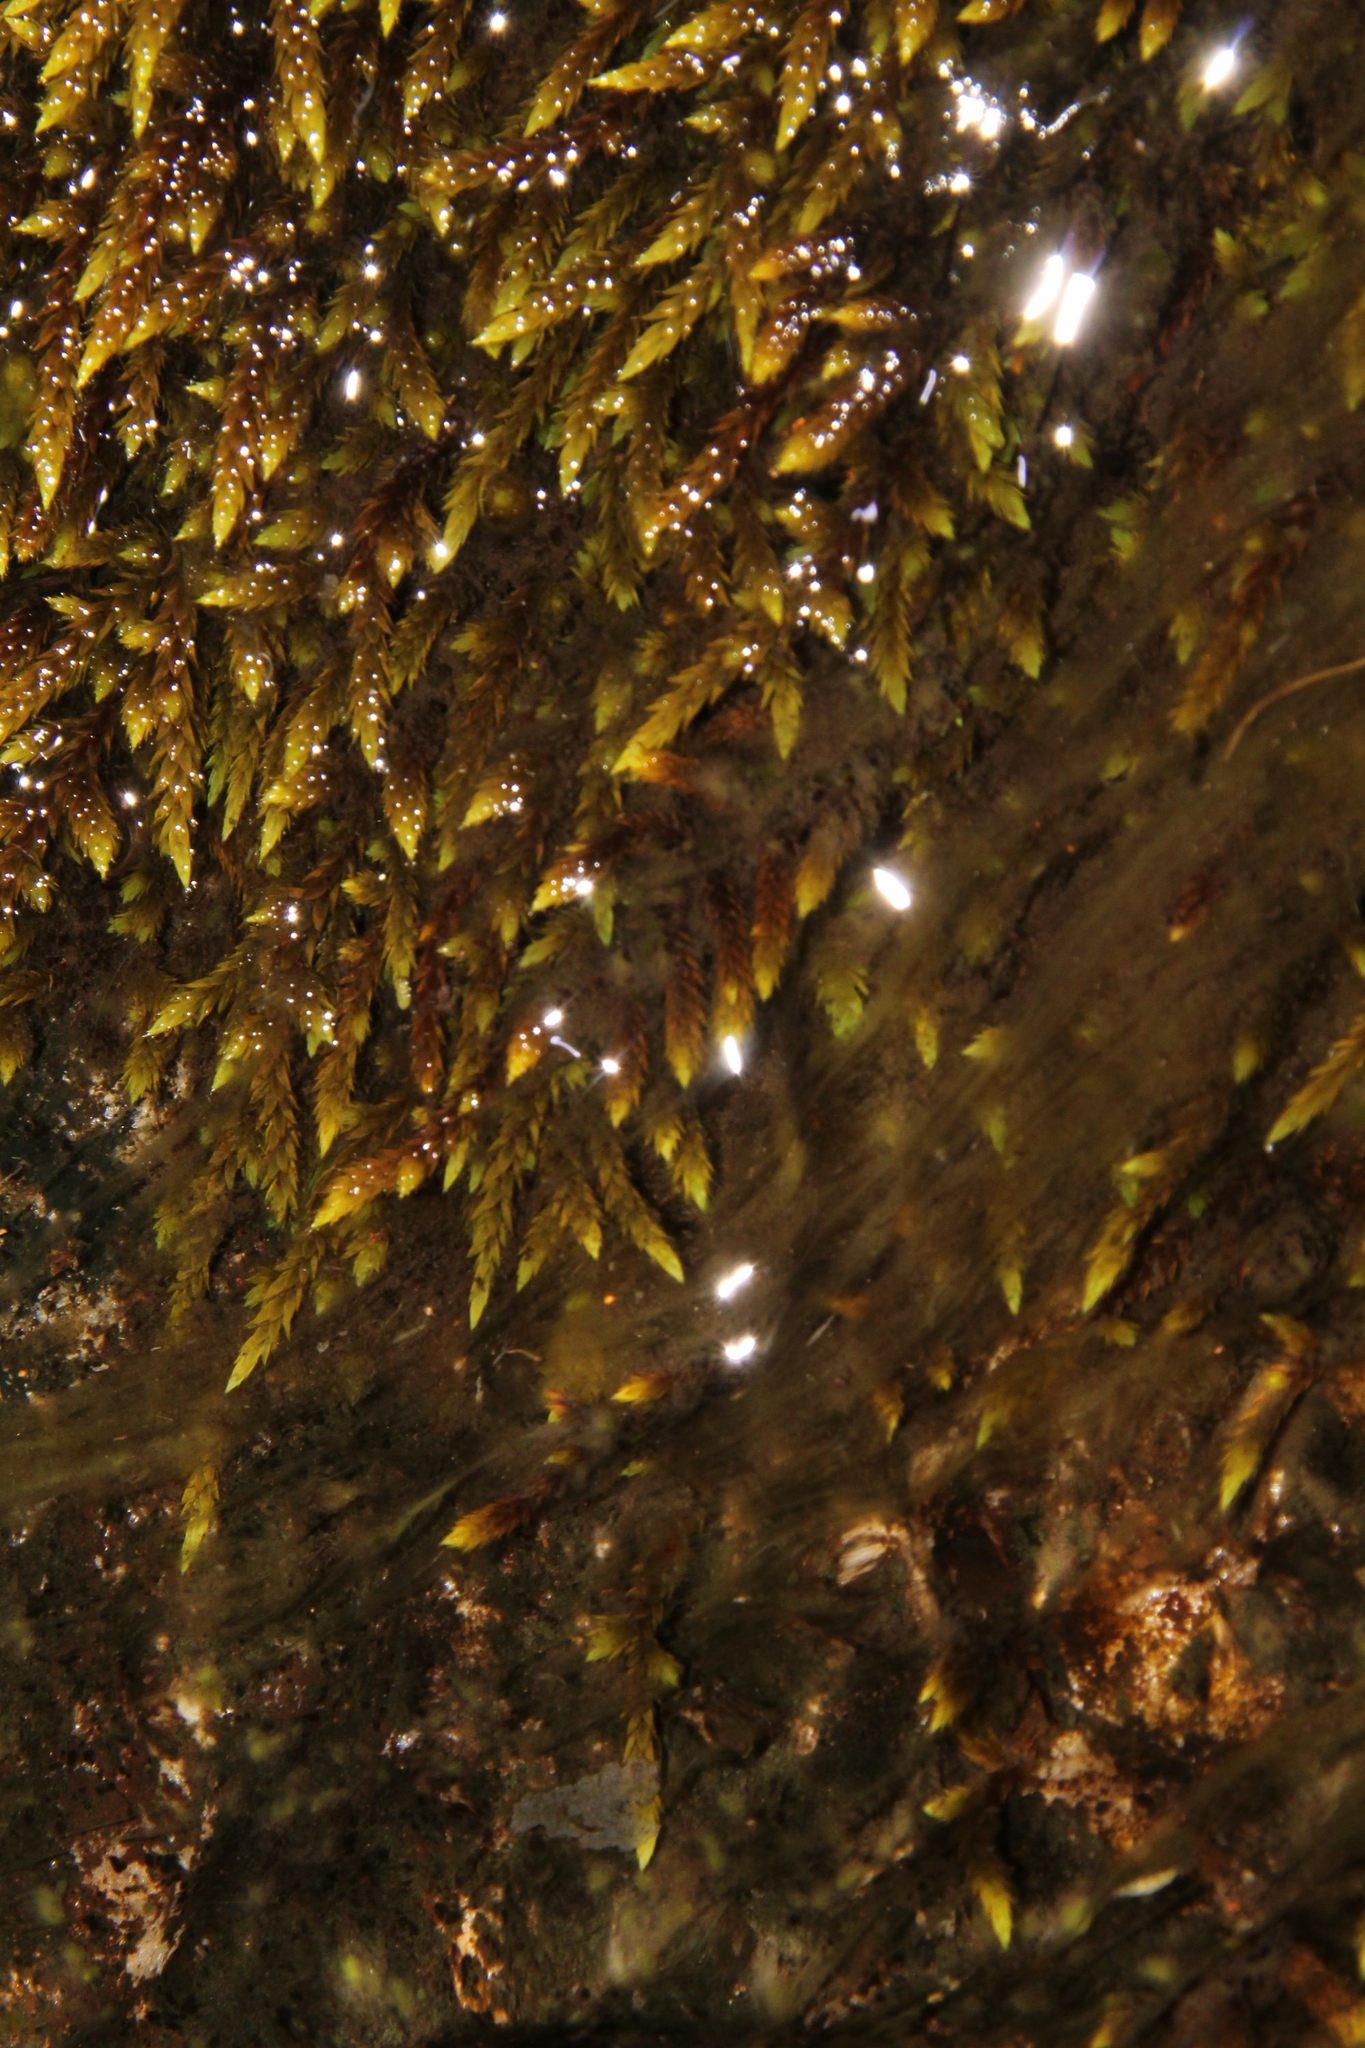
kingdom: Plantae
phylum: Bryophyta
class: Bryopsida
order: Hedwigiales
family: Hedwigiaceae
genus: Rhacocarpus
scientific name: Rhacocarpus purpurascens
